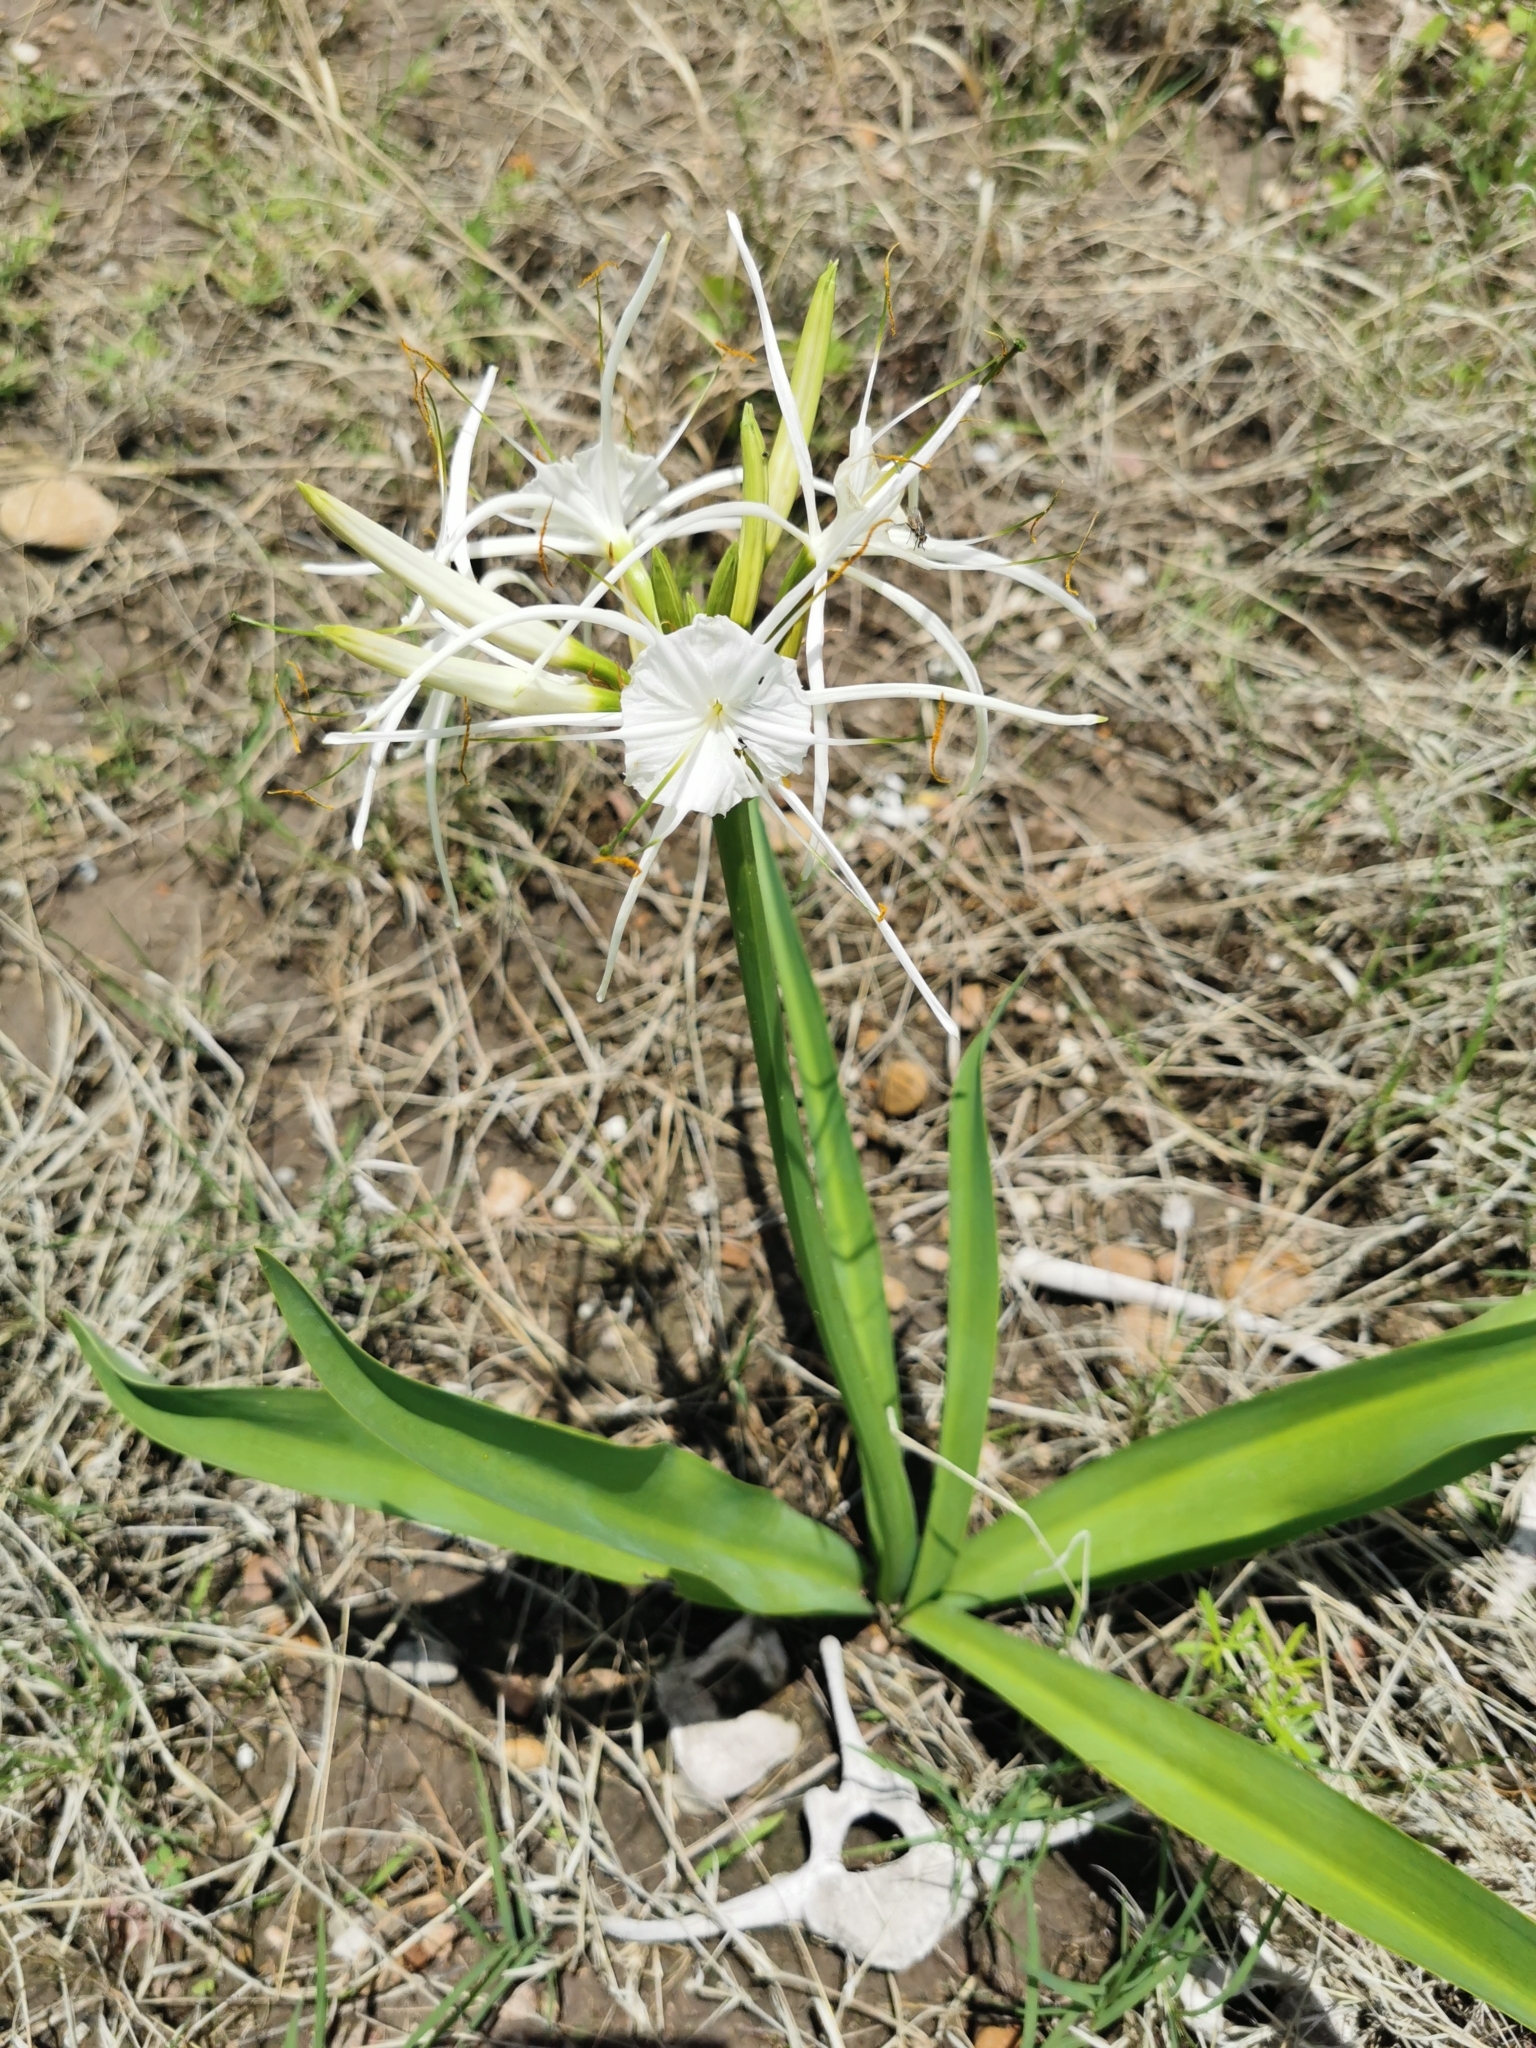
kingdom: Plantae
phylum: Tracheophyta
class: Liliopsida
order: Asparagales
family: Amaryllidaceae
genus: Hymenocallis
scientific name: Hymenocallis durangoensis
